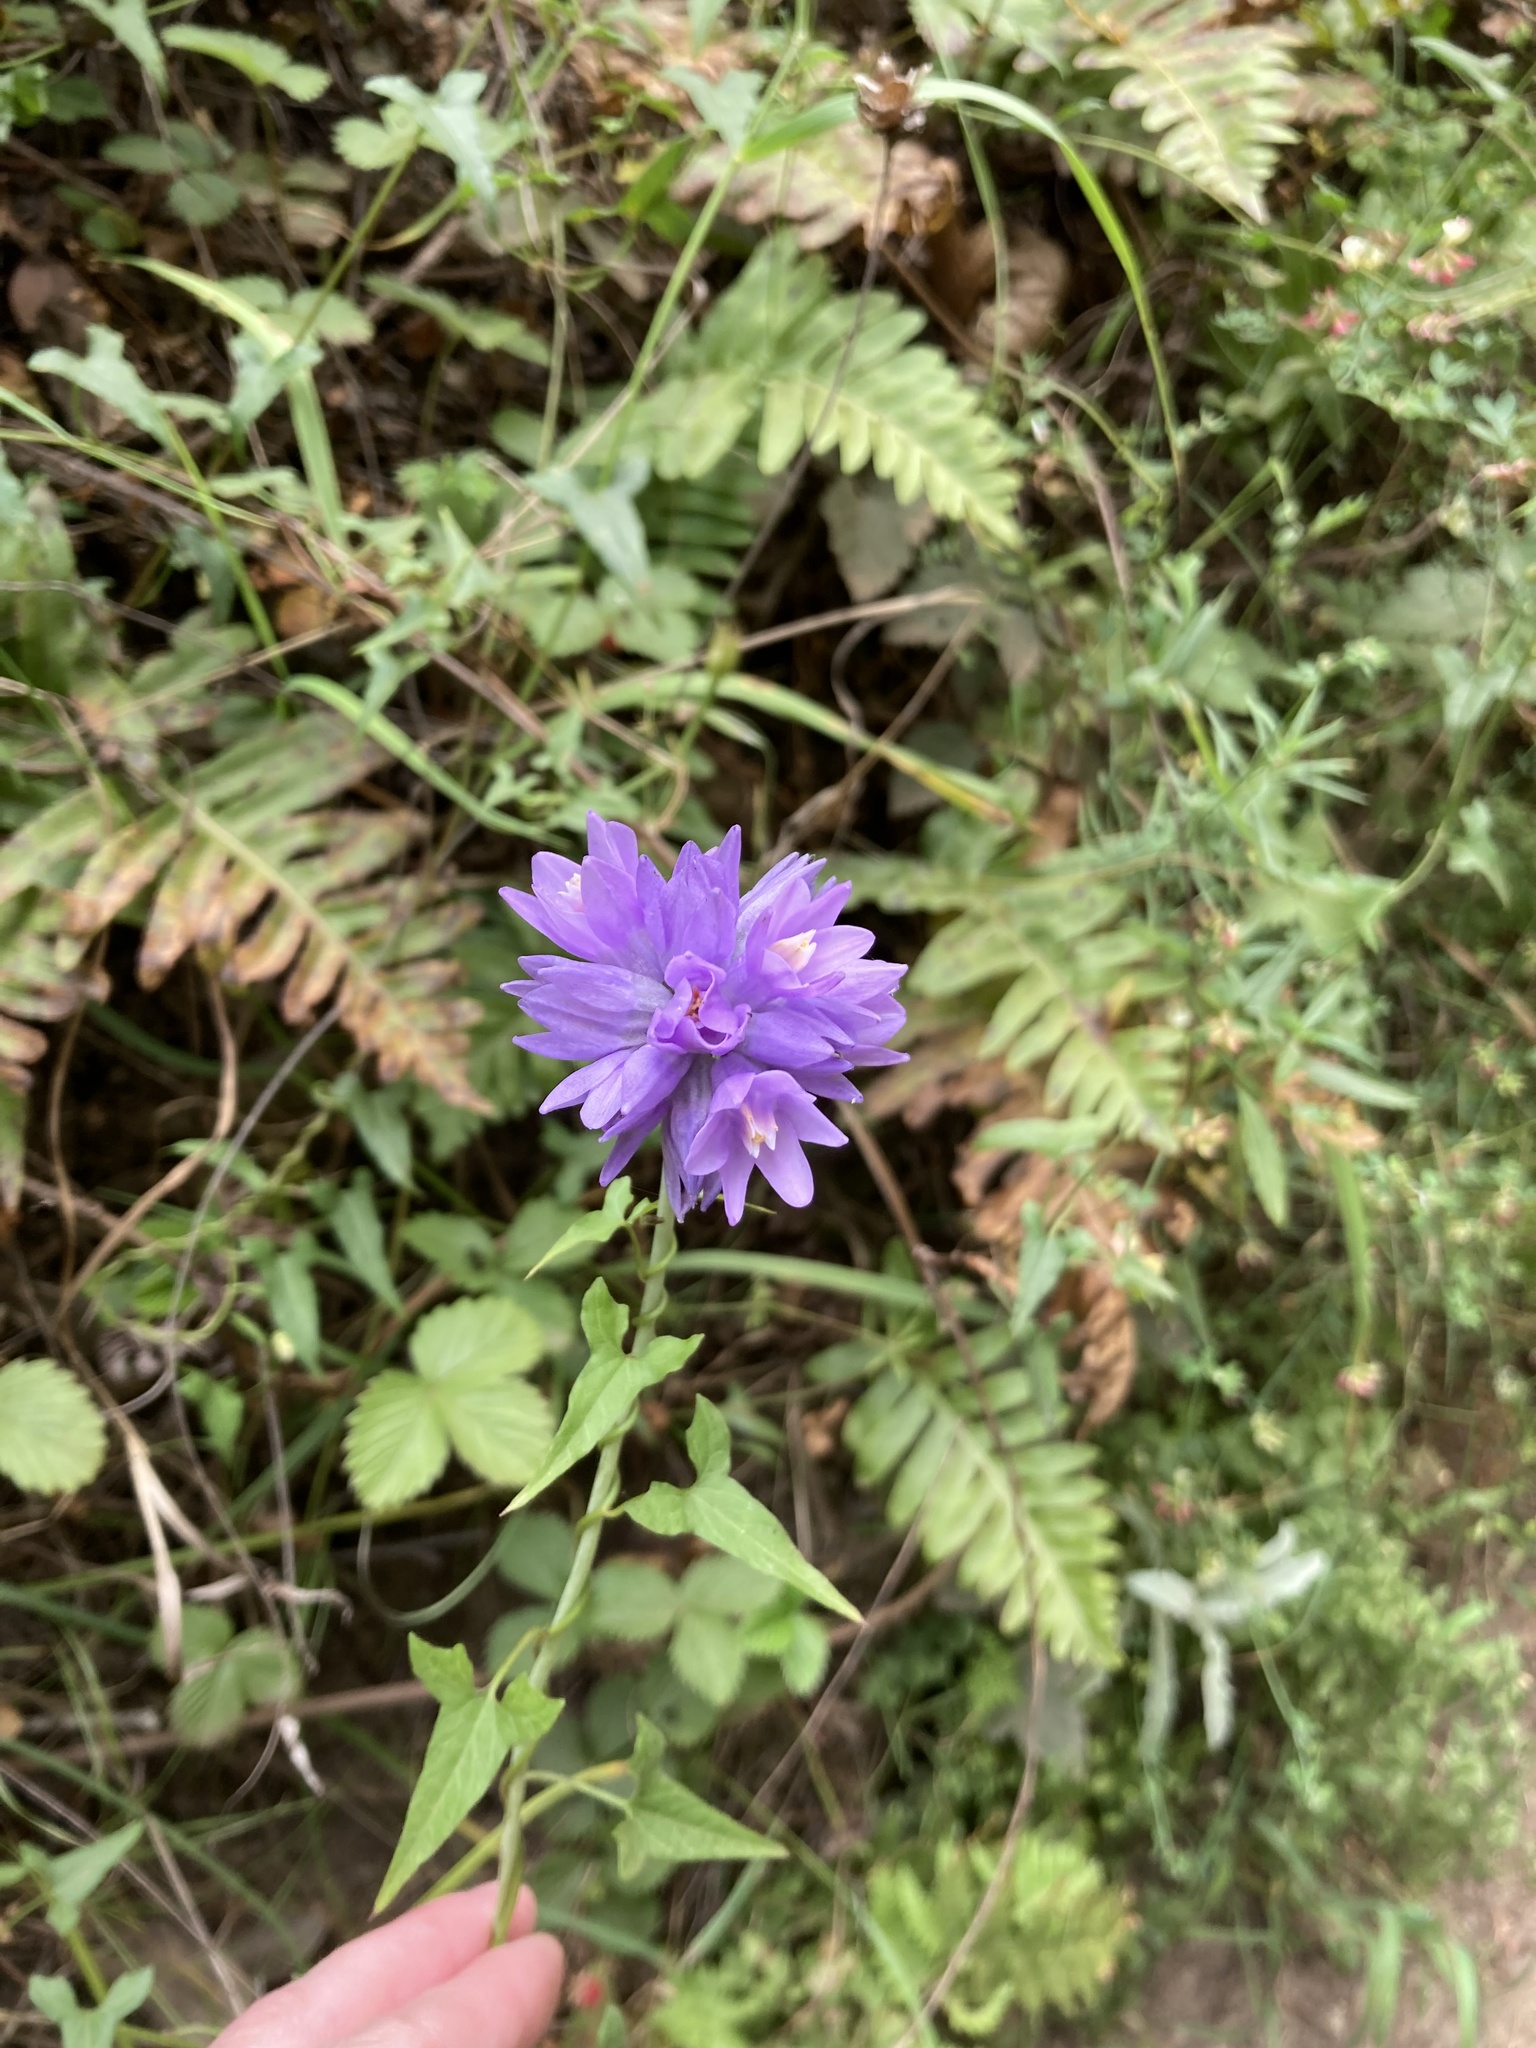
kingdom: Plantae
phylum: Tracheophyta
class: Liliopsida
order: Asparagales
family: Asparagaceae
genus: Dipterostemon
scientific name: Dipterostemon capitatus
